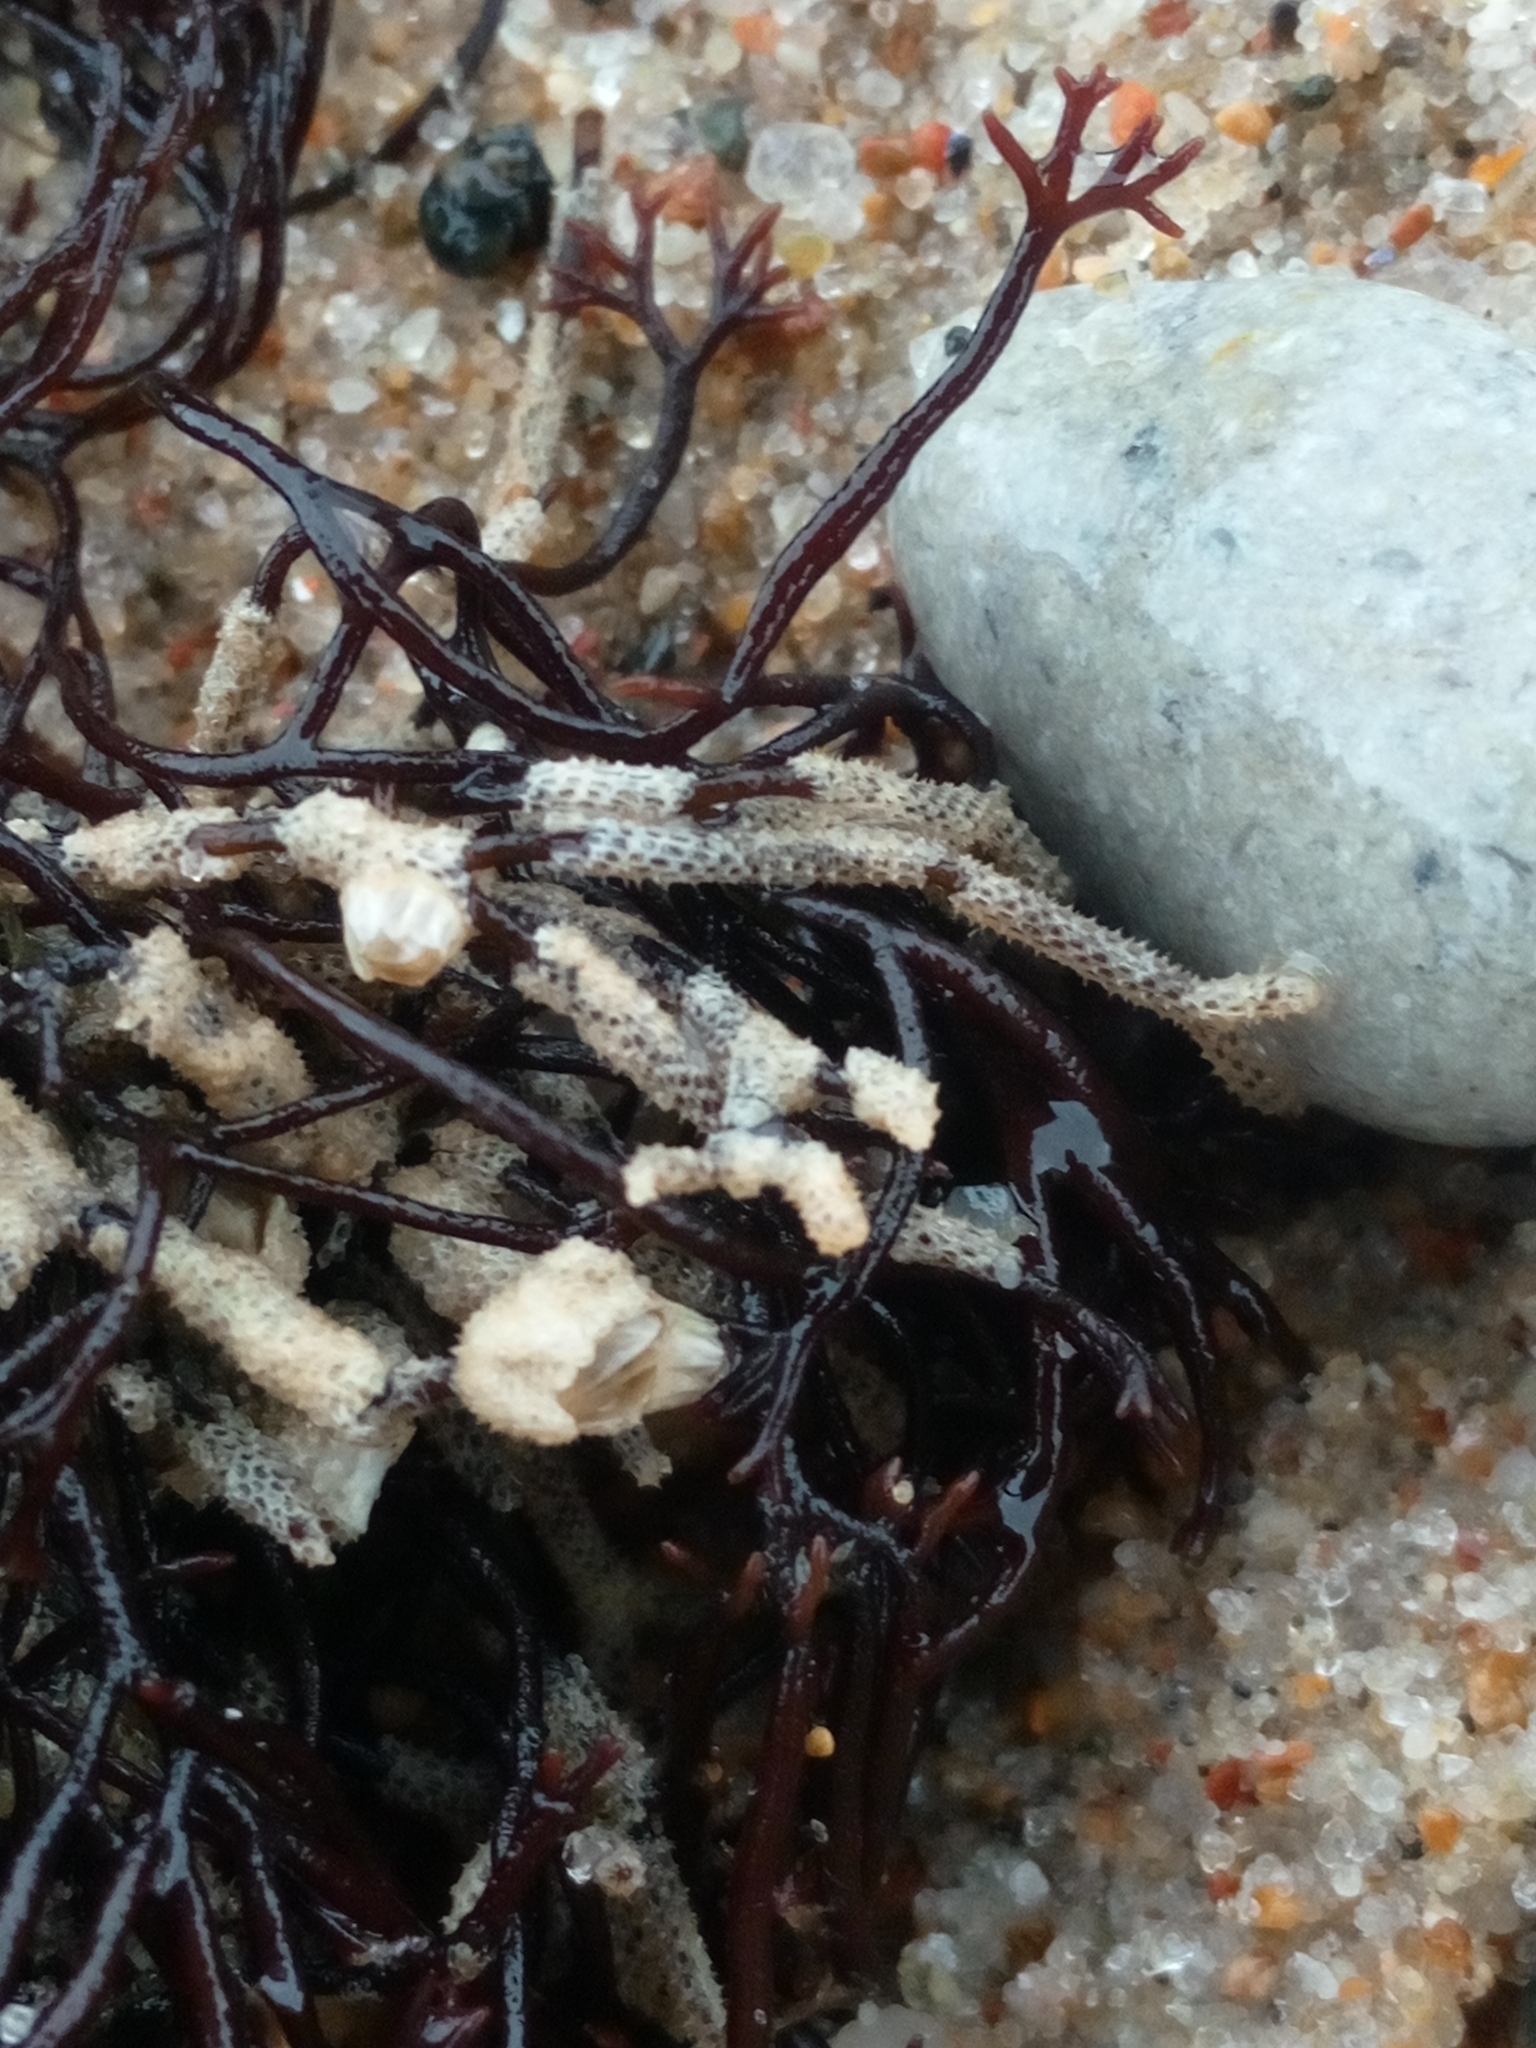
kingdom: Animalia
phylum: Bryozoa
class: Gymnolaemata
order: Cheilostomatida
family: Electridae
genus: Electra
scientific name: Electra pilosa
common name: Hairy sea-mat
